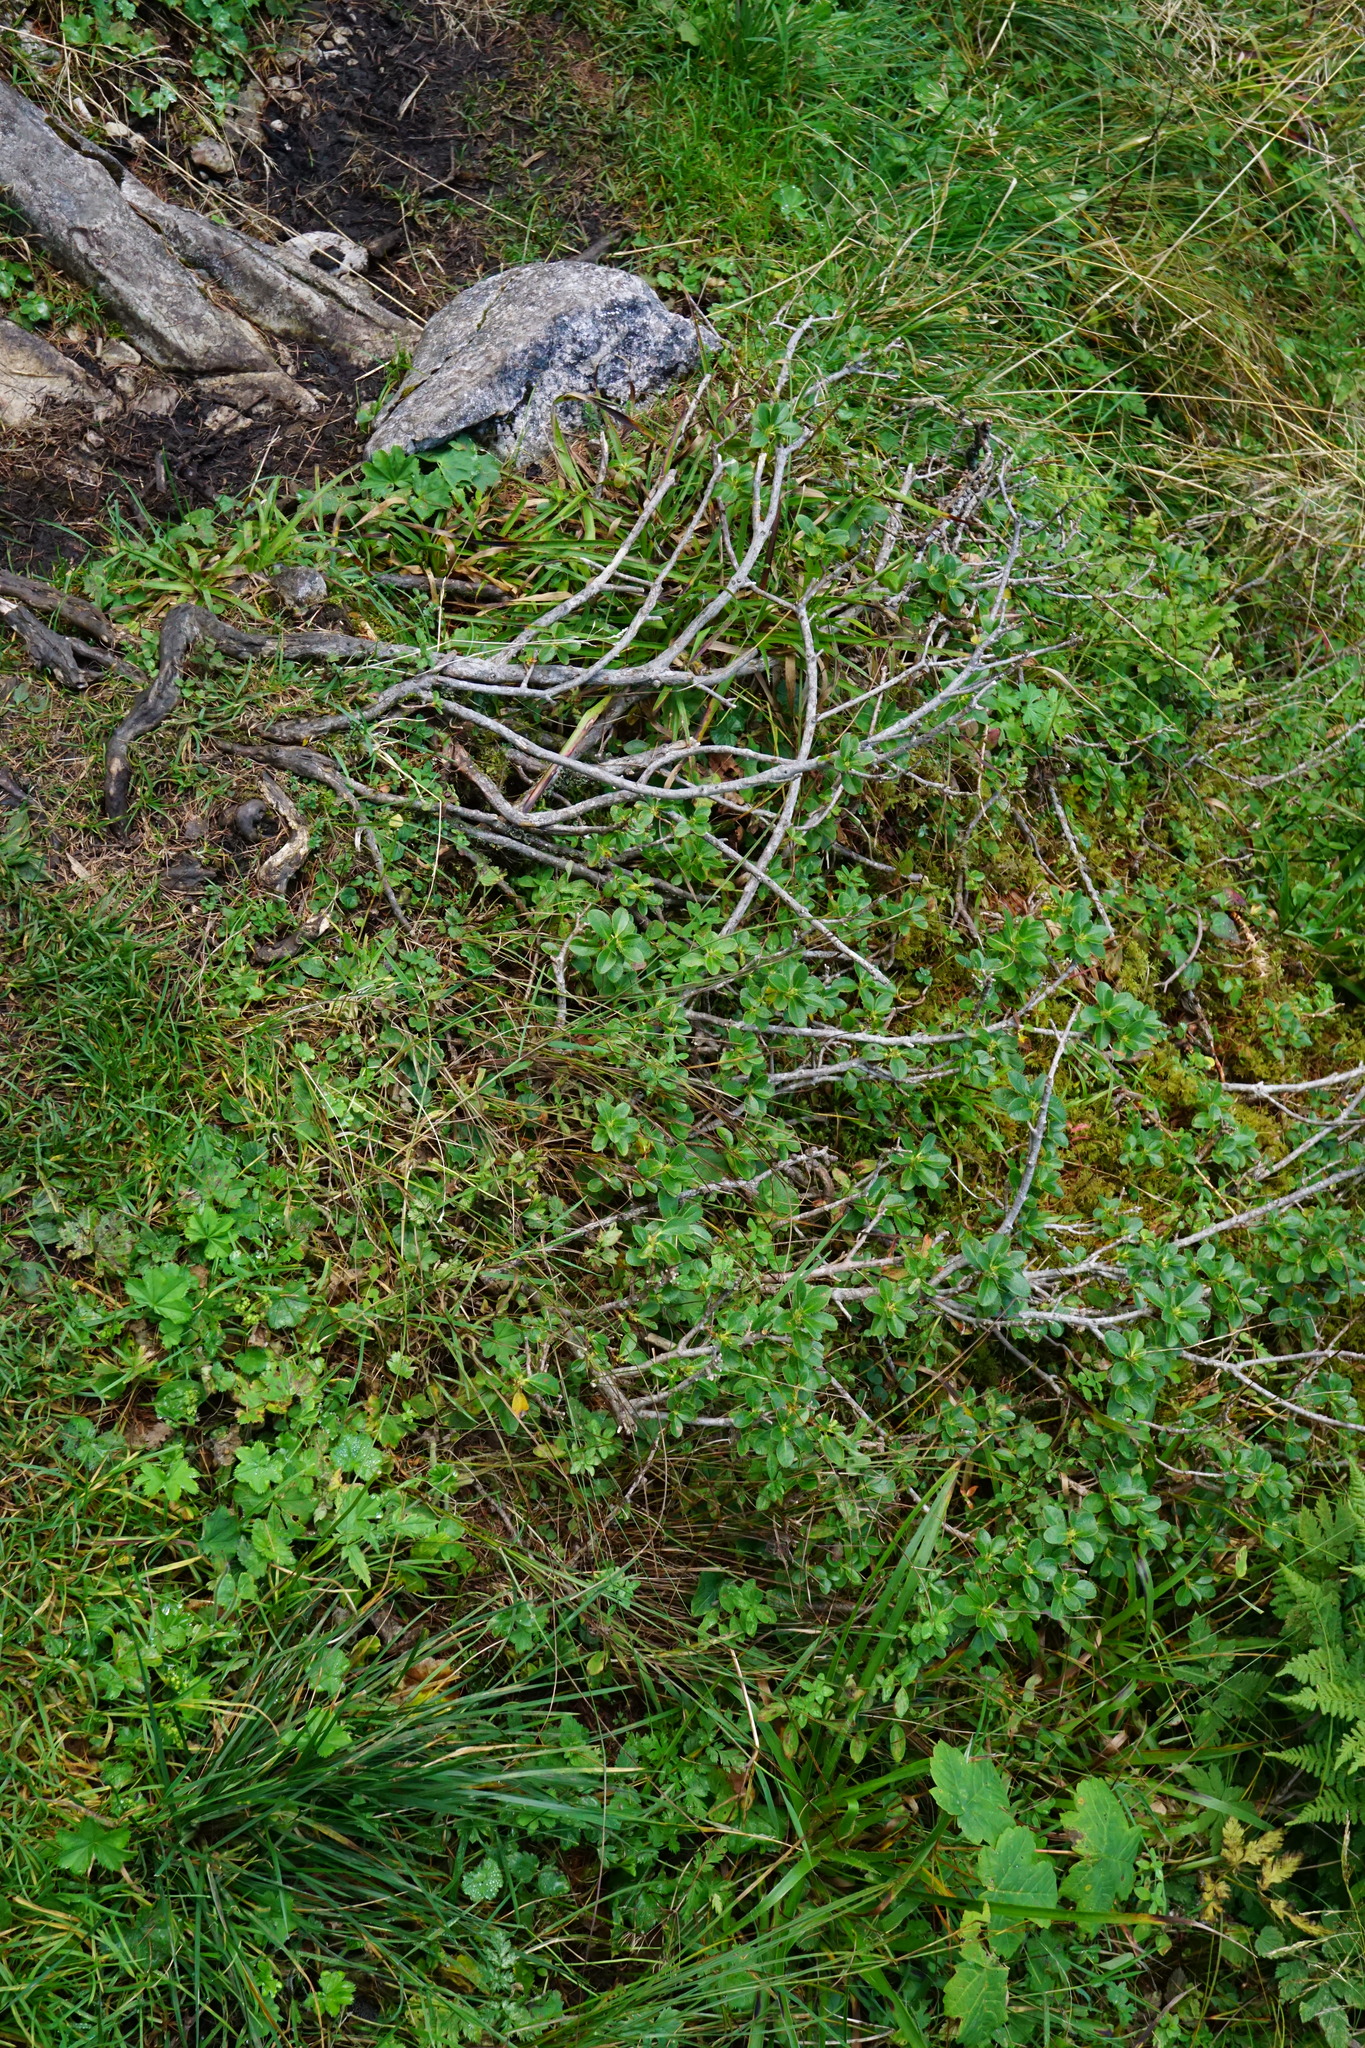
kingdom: Plantae
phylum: Tracheophyta
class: Magnoliopsida
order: Ericales
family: Ericaceae
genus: Rhododendron
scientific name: Rhododendron hirsutum
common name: Hairy alpenrose
